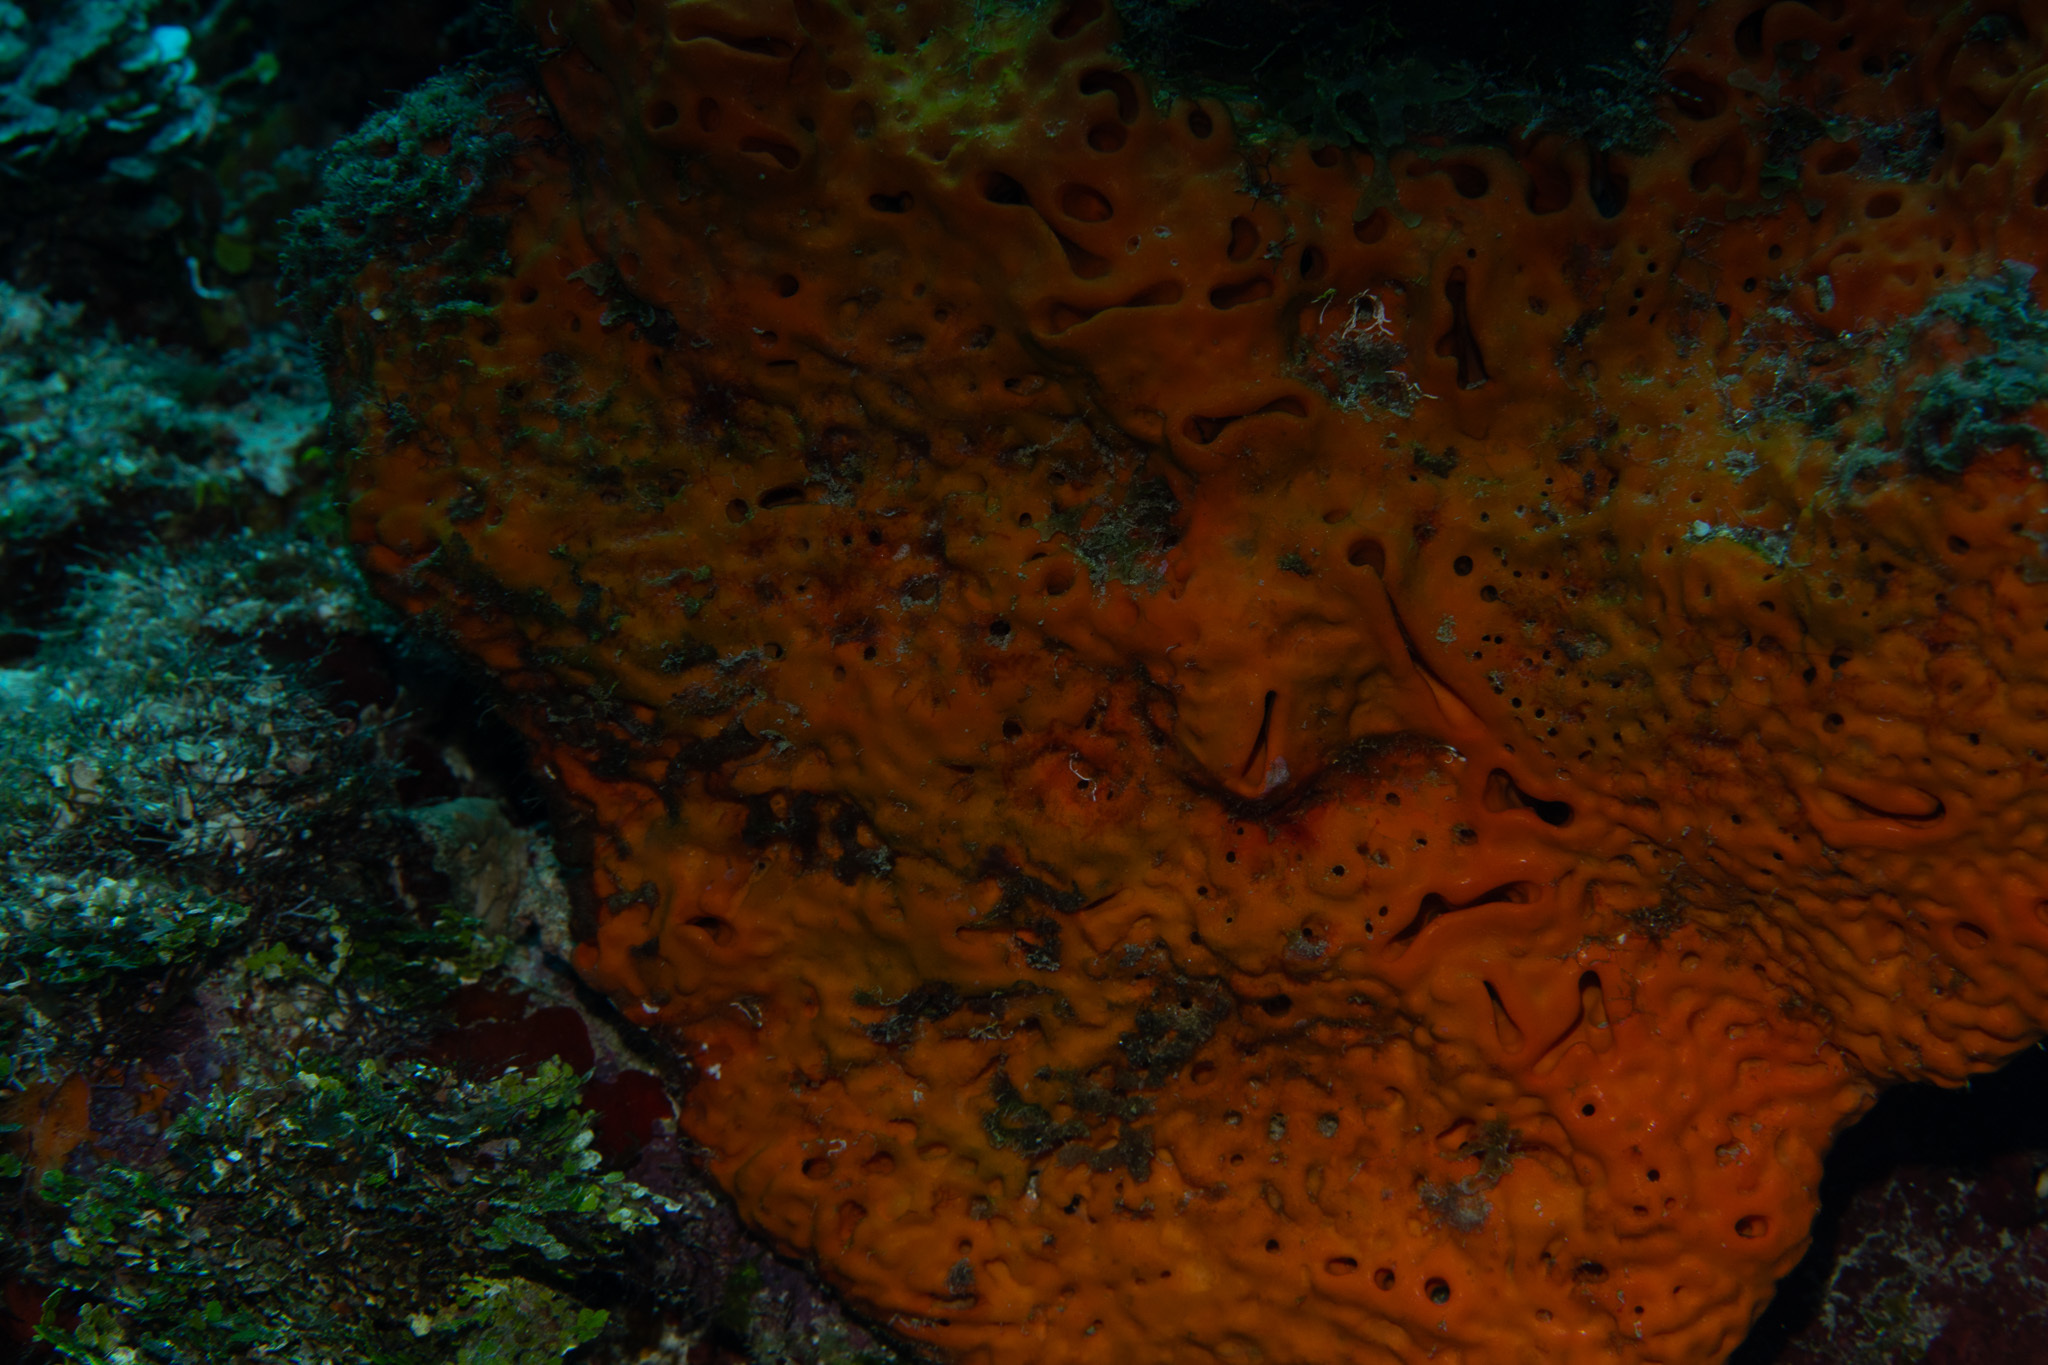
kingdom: Animalia
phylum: Porifera
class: Demospongiae
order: Agelasida
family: Agelasidae
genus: Agelas
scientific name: Agelas clathrodes
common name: Orange elephant ear sponge
